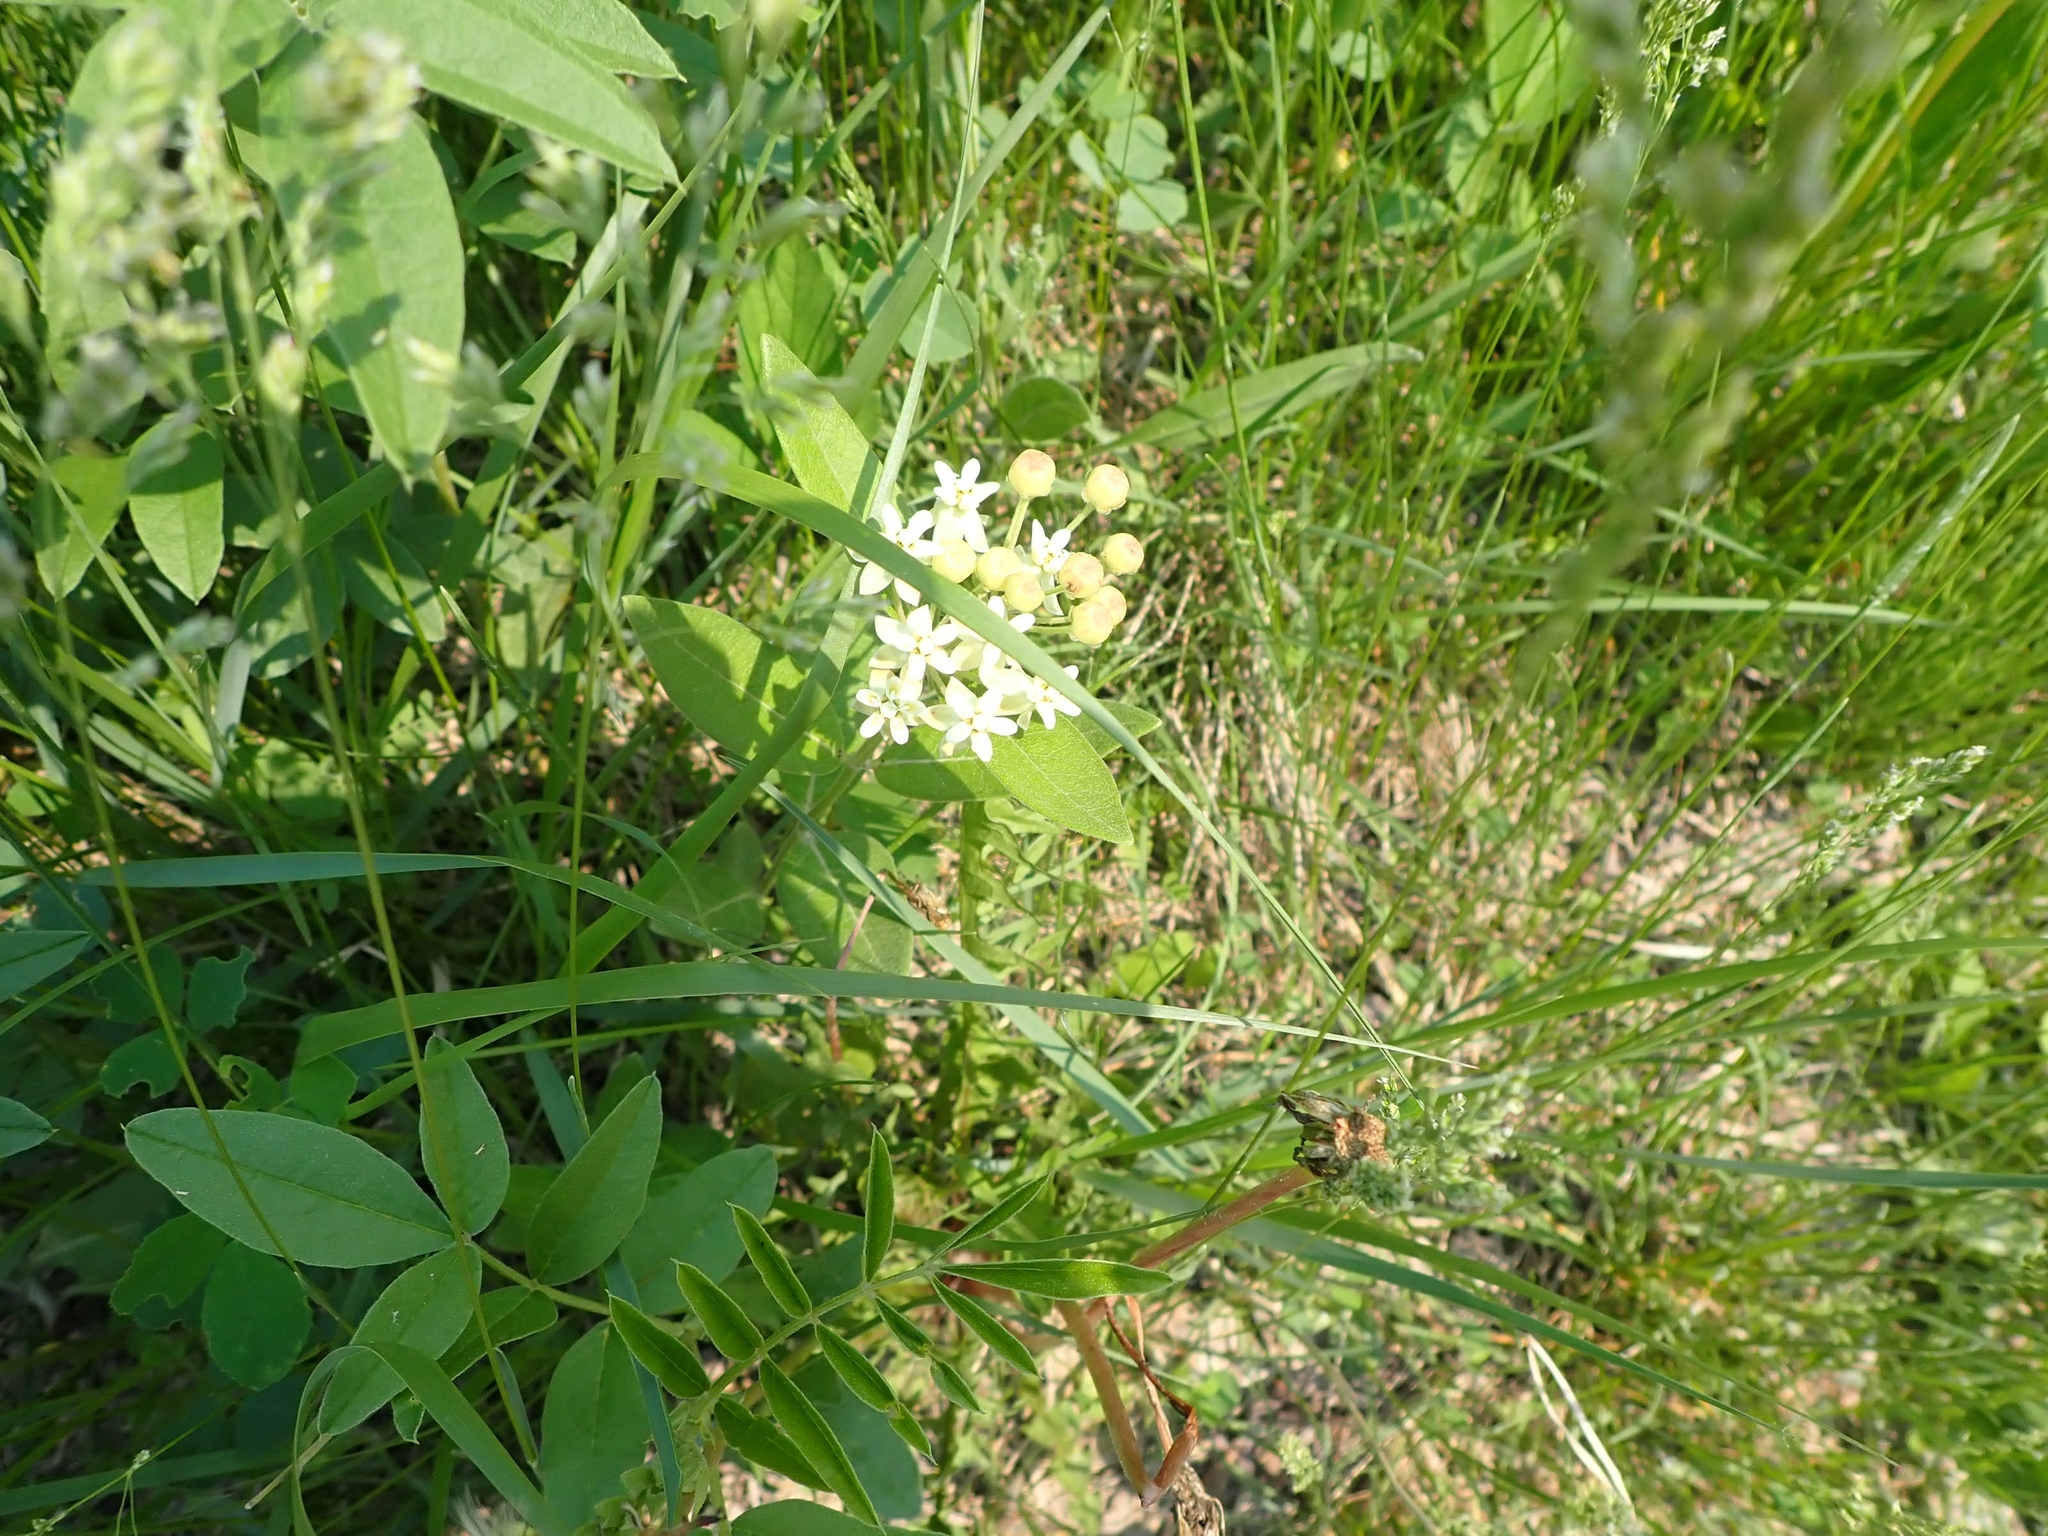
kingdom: Plantae
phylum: Tracheophyta
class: Magnoliopsida
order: Gentianales
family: Apocynaceae
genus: Asclepias
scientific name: Asclepias ovalifolia
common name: Dwarf milkweed
